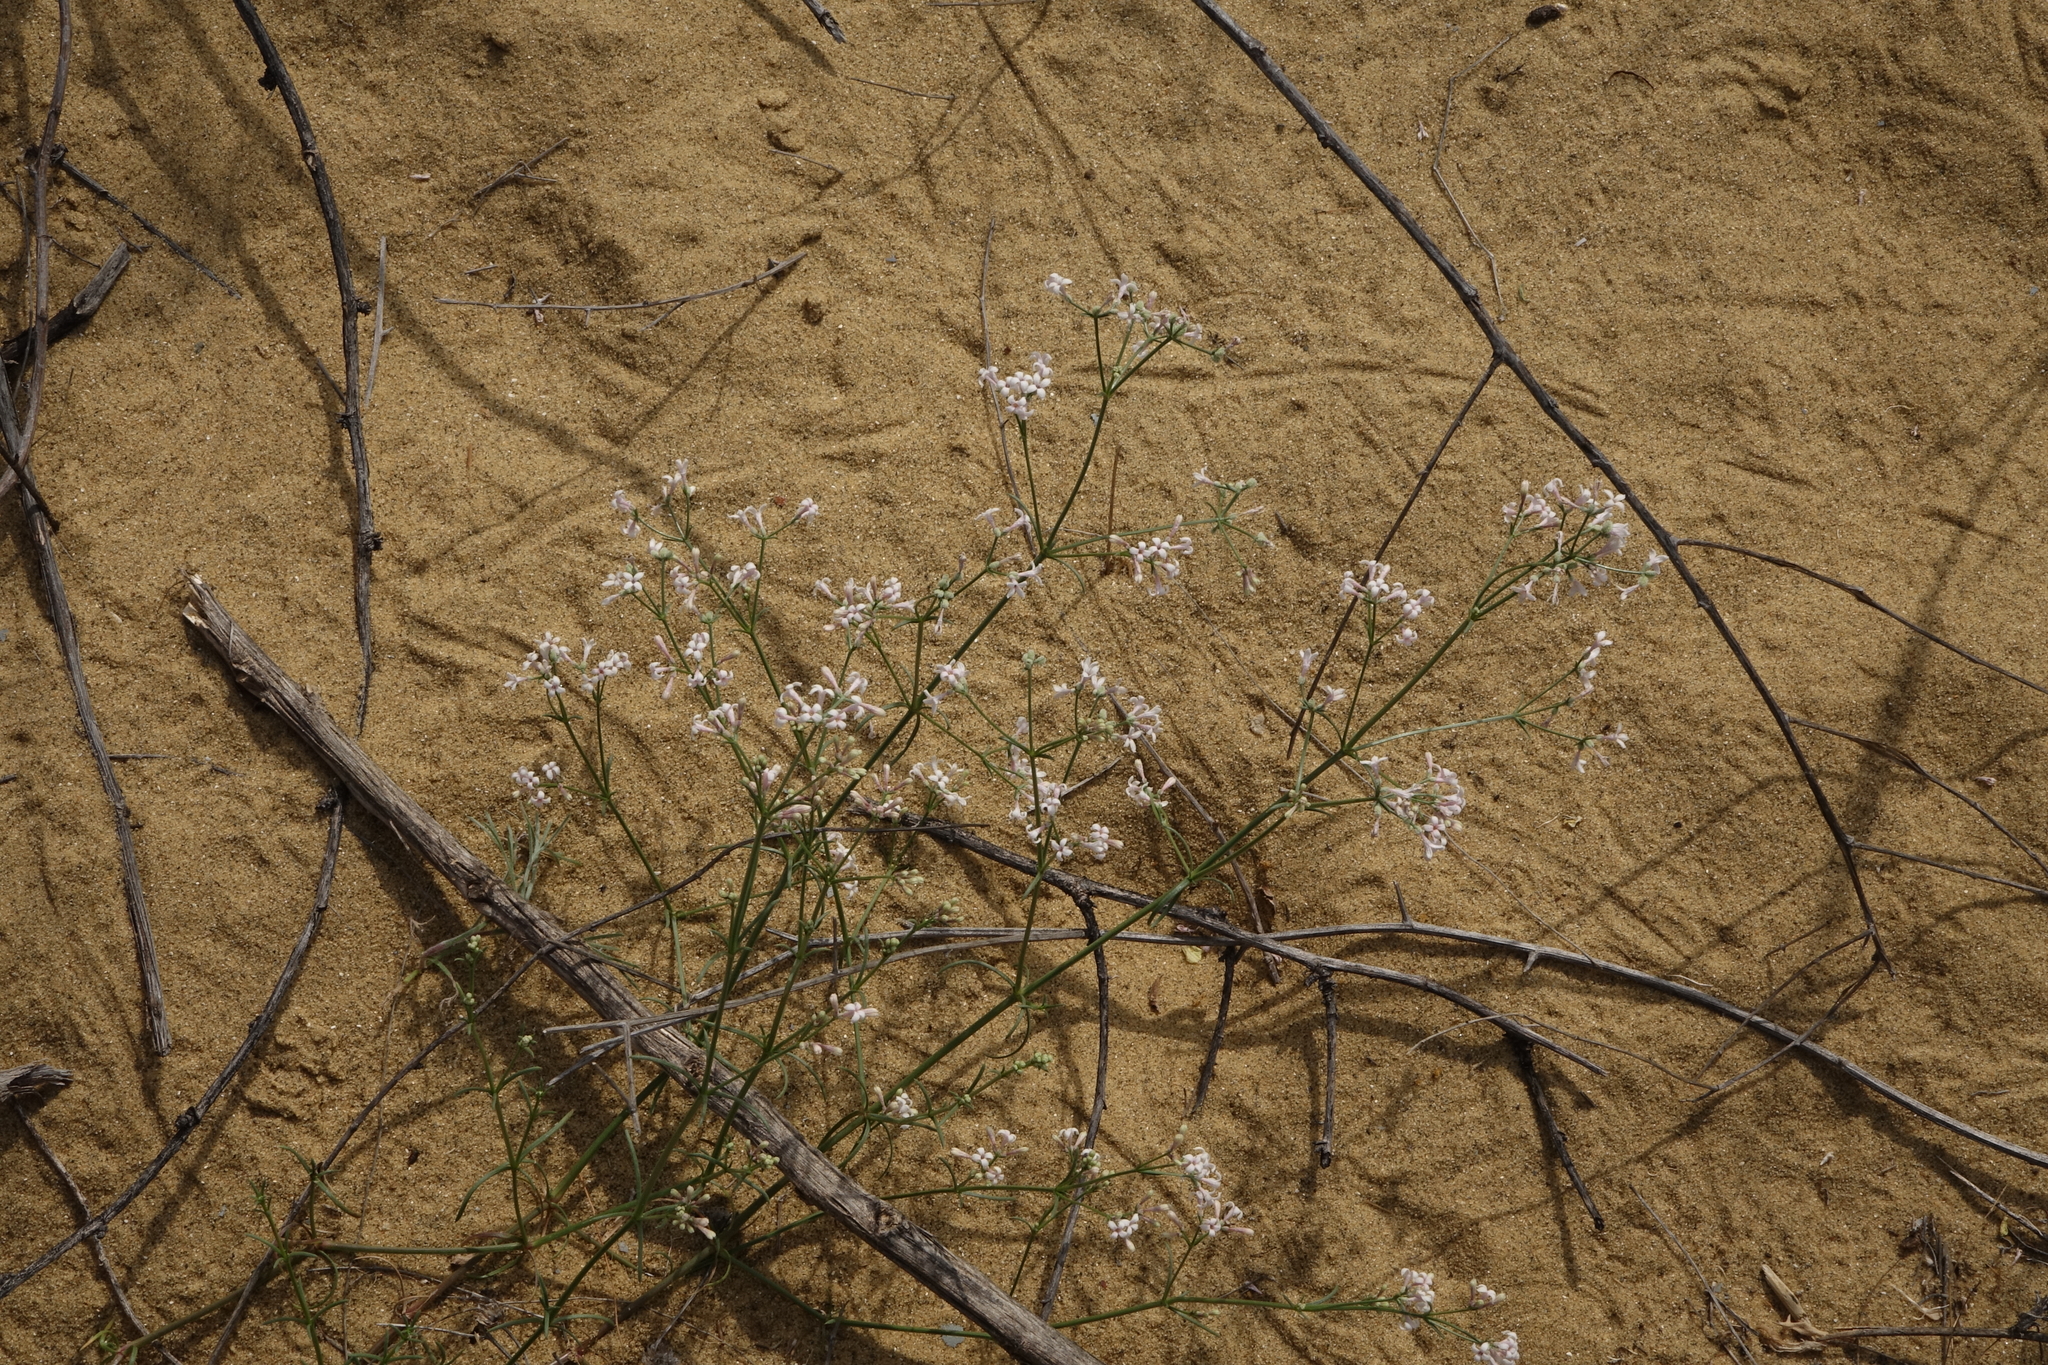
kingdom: Plantae
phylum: Tracheophyta
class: Magnoliopsida
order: Gentianales
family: Rubiaceae
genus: Cynanchica
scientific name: Cynanchica diminuta
